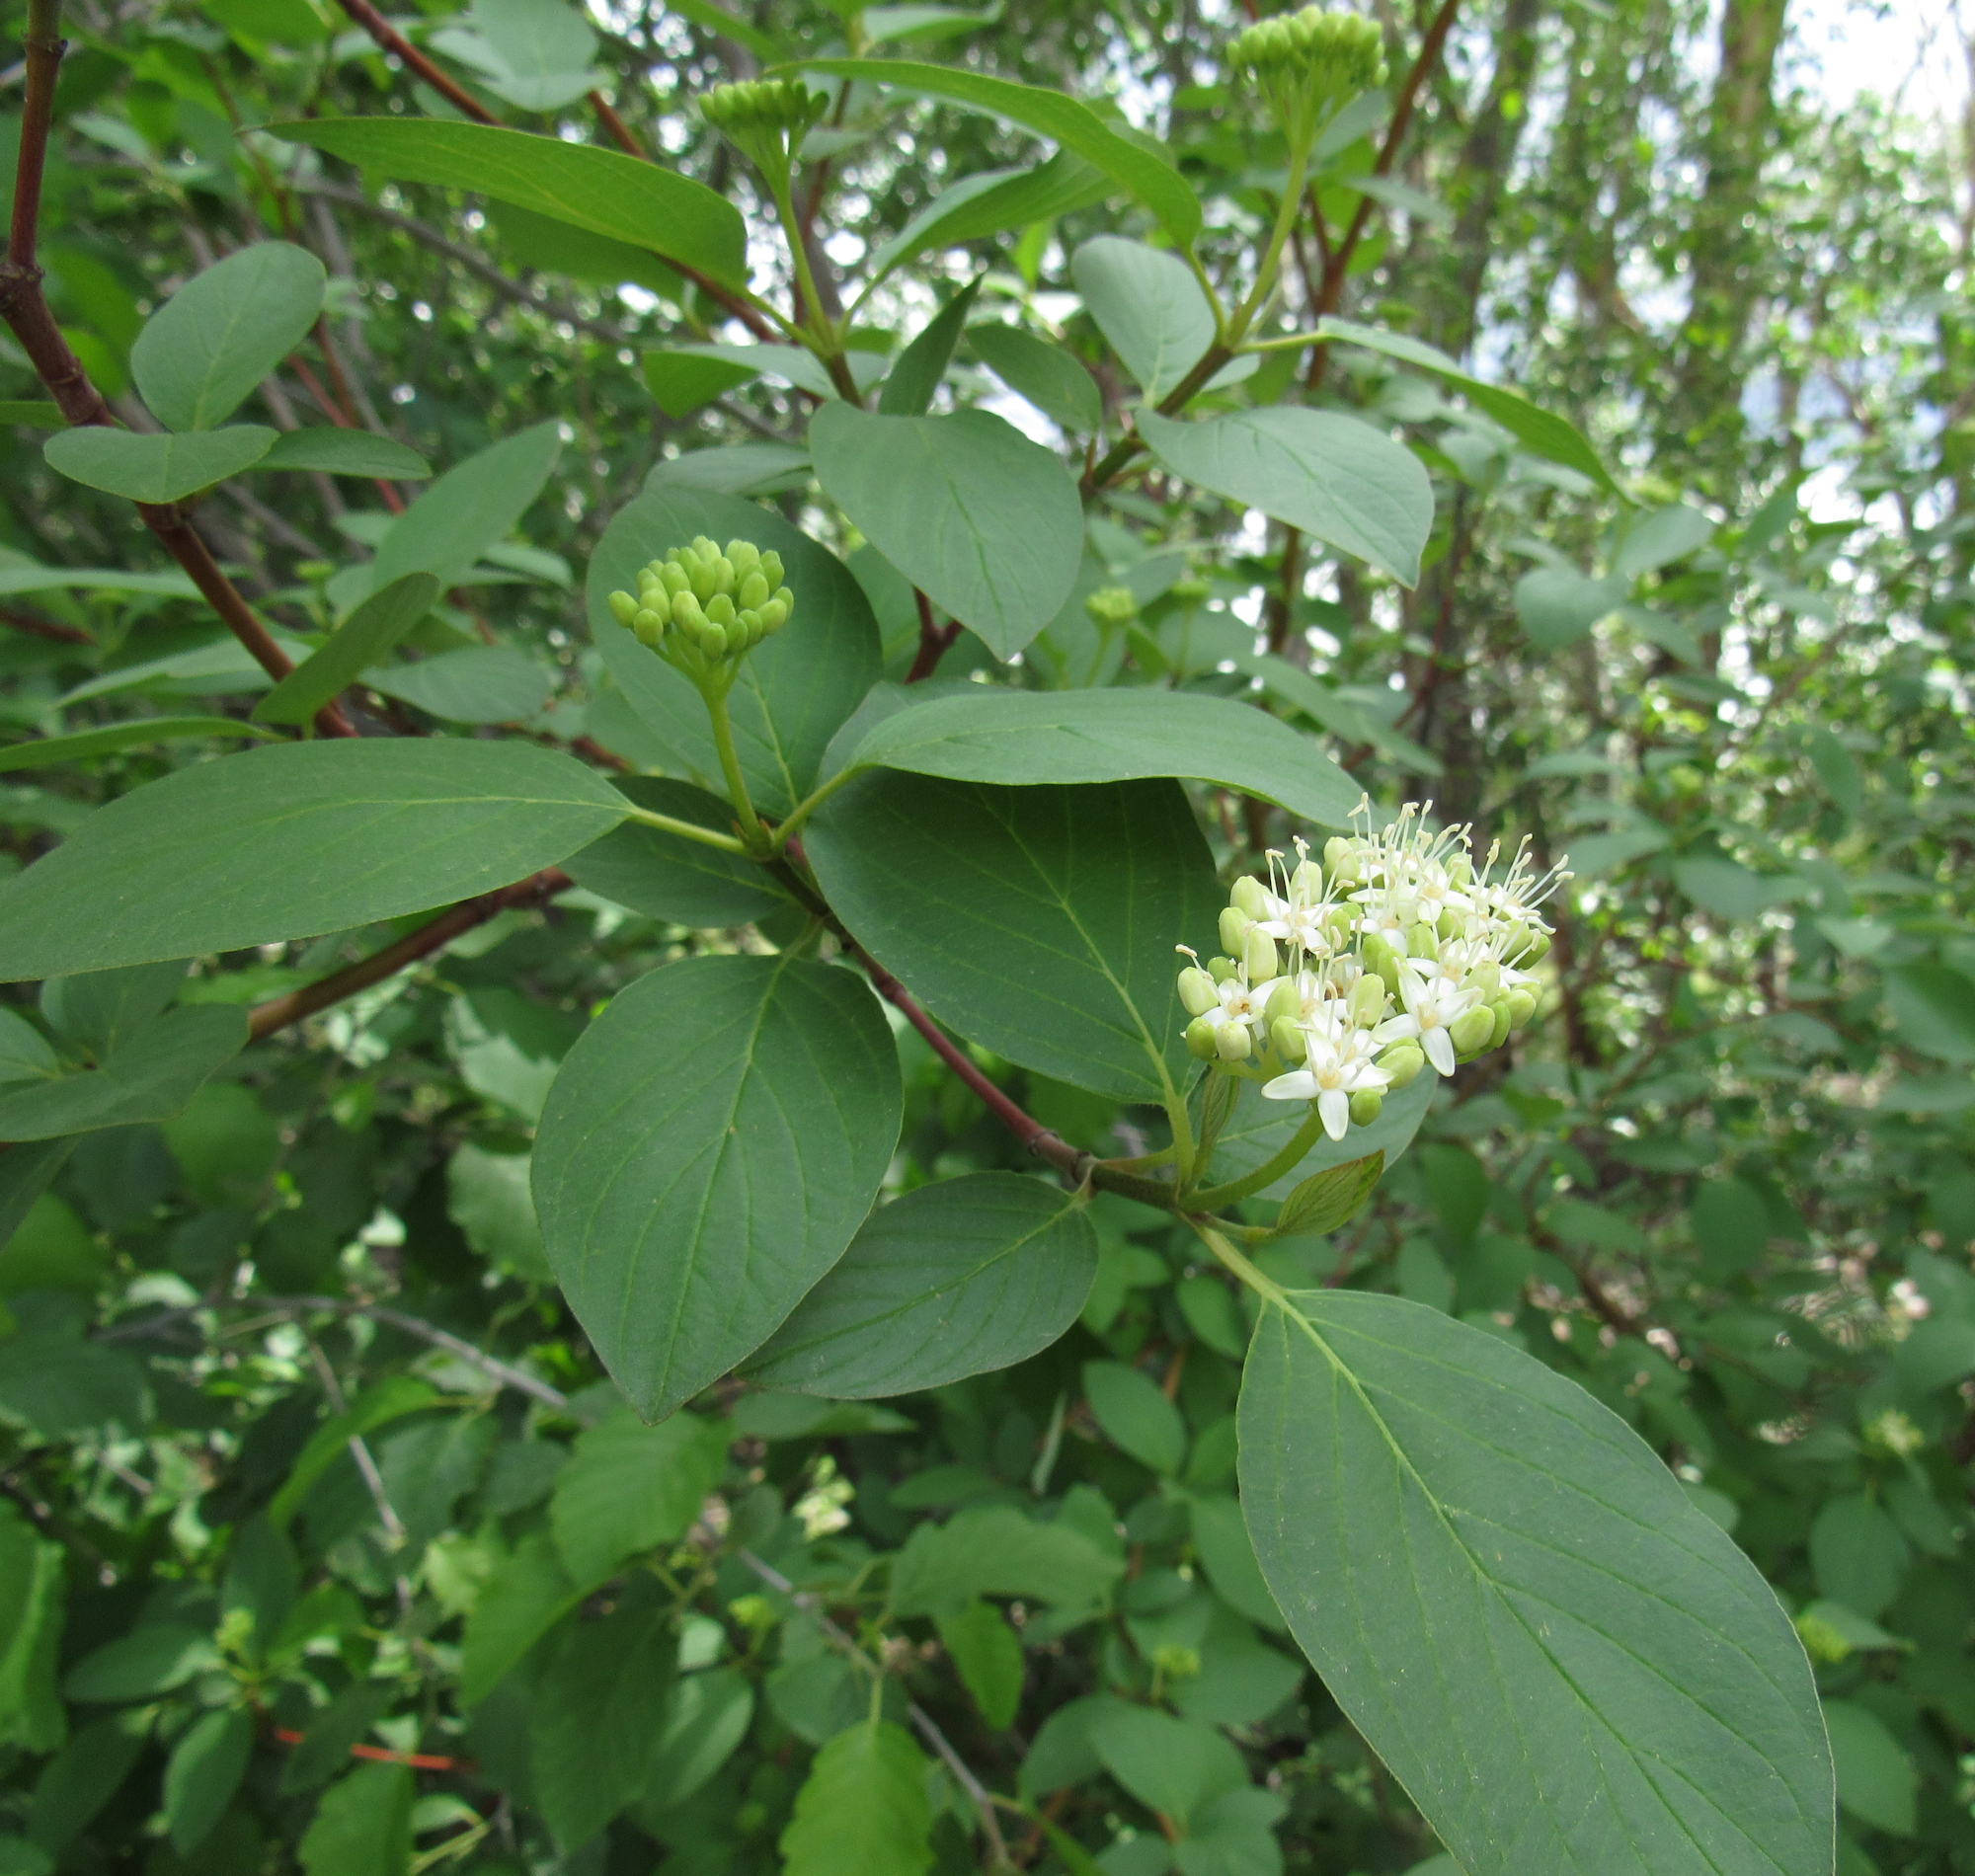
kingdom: Plantae
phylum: Tracheophyta
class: Magnoliopsida
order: Cornales
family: Cornaceae
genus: Cornus
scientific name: Cornus sericea
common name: Red-osier dogwood
